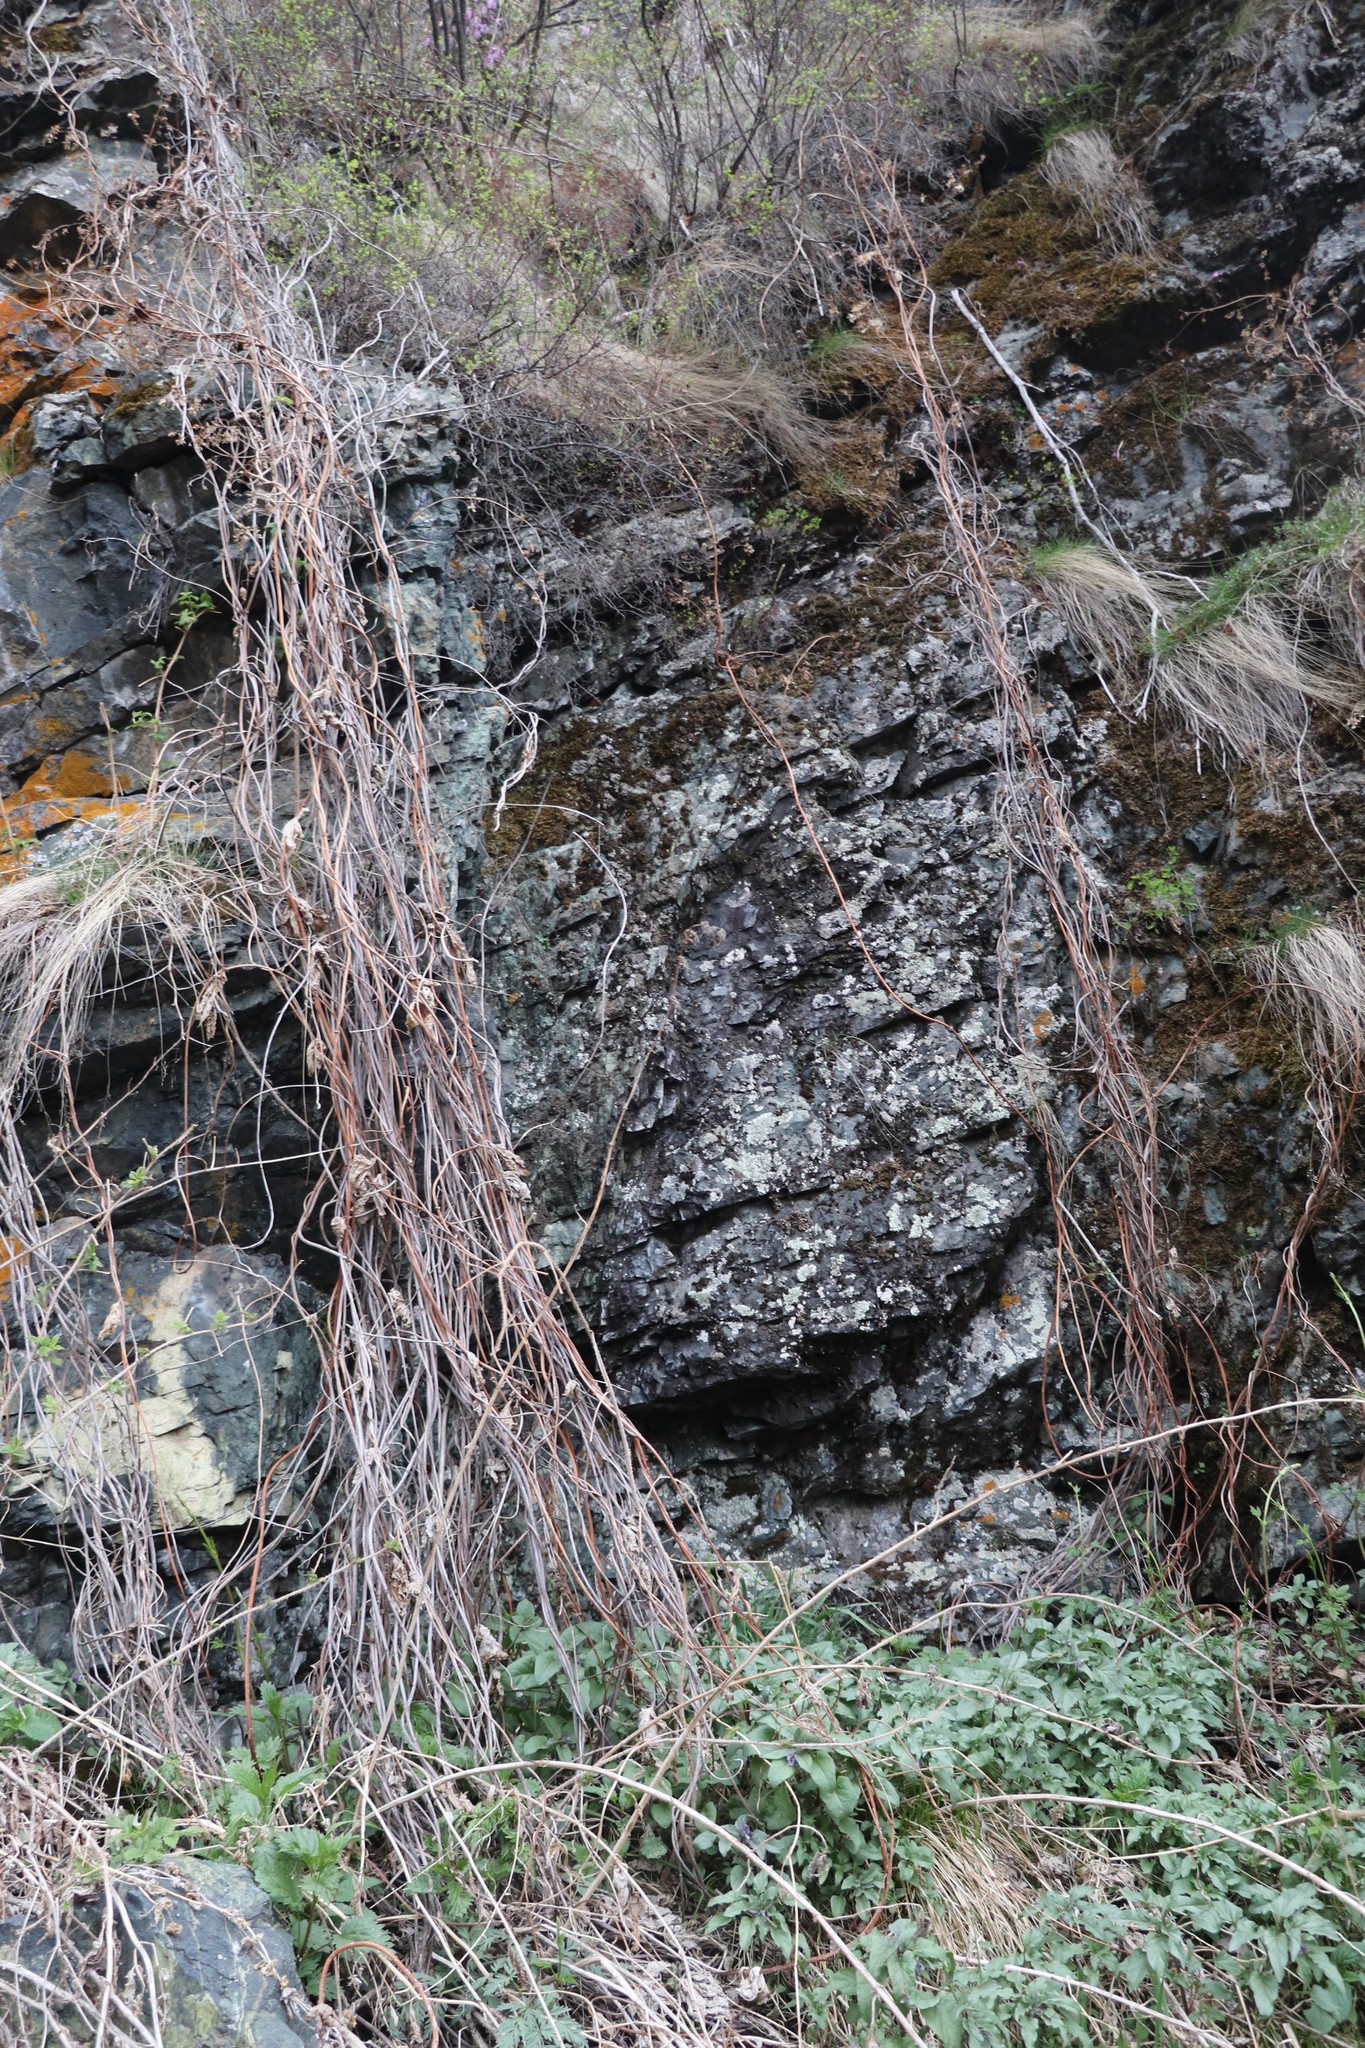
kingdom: Plantae
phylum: Tracheophyta
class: Magnoliopsida
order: Rosales
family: Cannabaceae
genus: Humulus
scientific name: Humulus lupulus
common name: Hop
